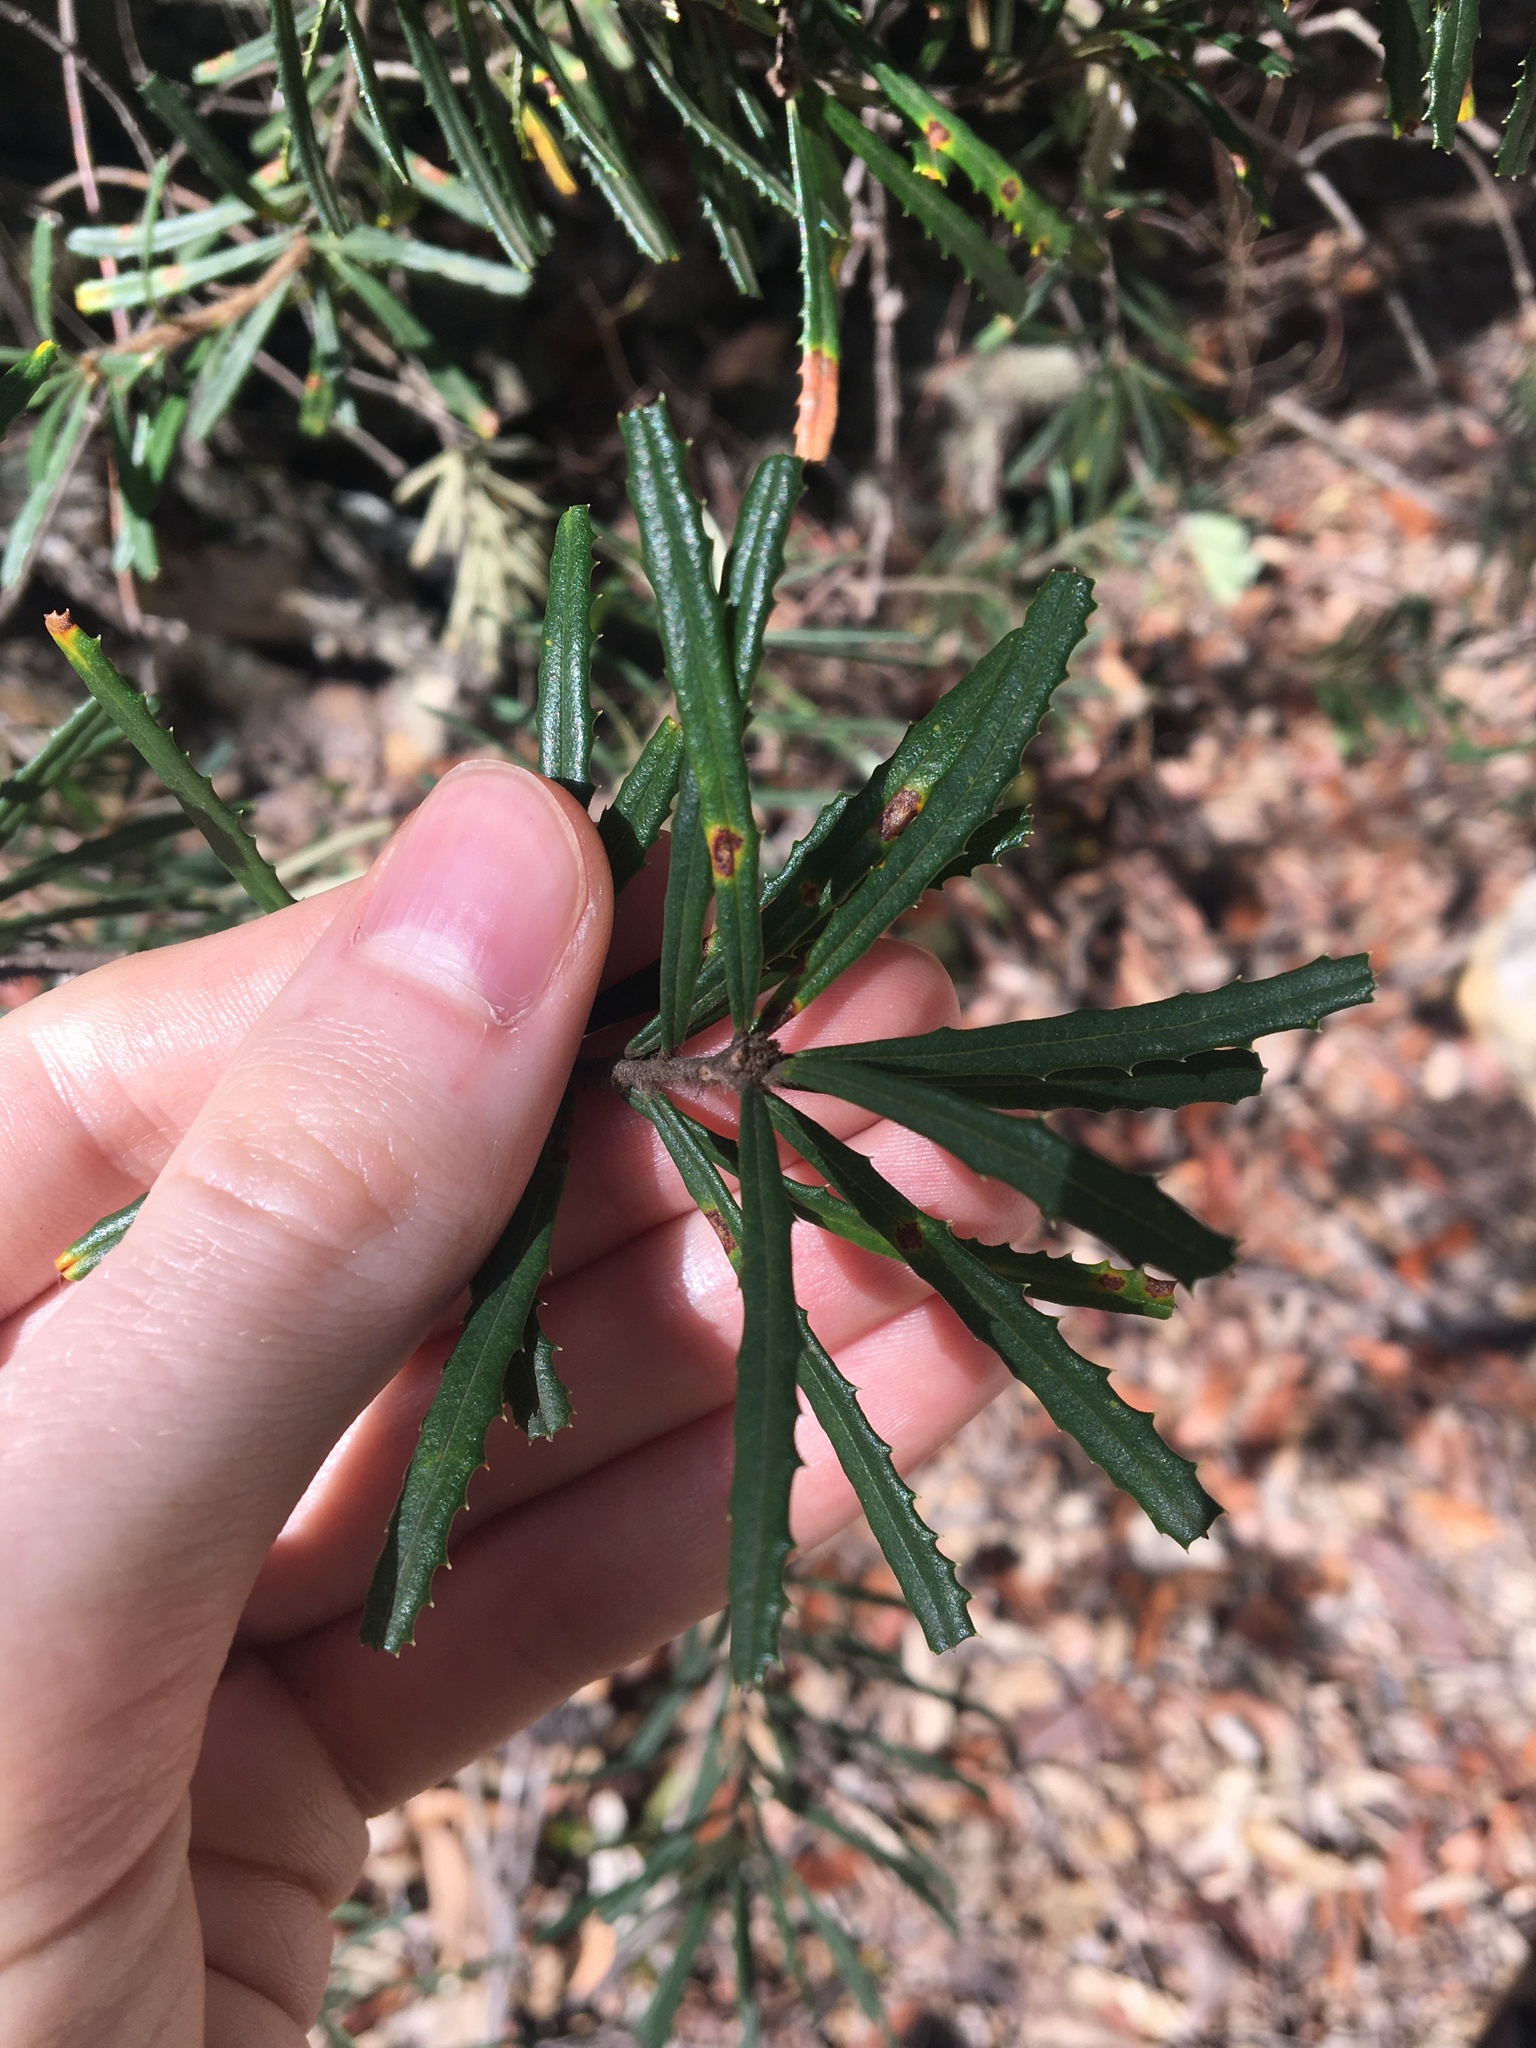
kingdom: Plantae
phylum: Tracheophyta
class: Magnoliopsida
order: Proteales
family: Proteaceae
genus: Banksia
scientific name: Banksia marginata
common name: Silver banksia
